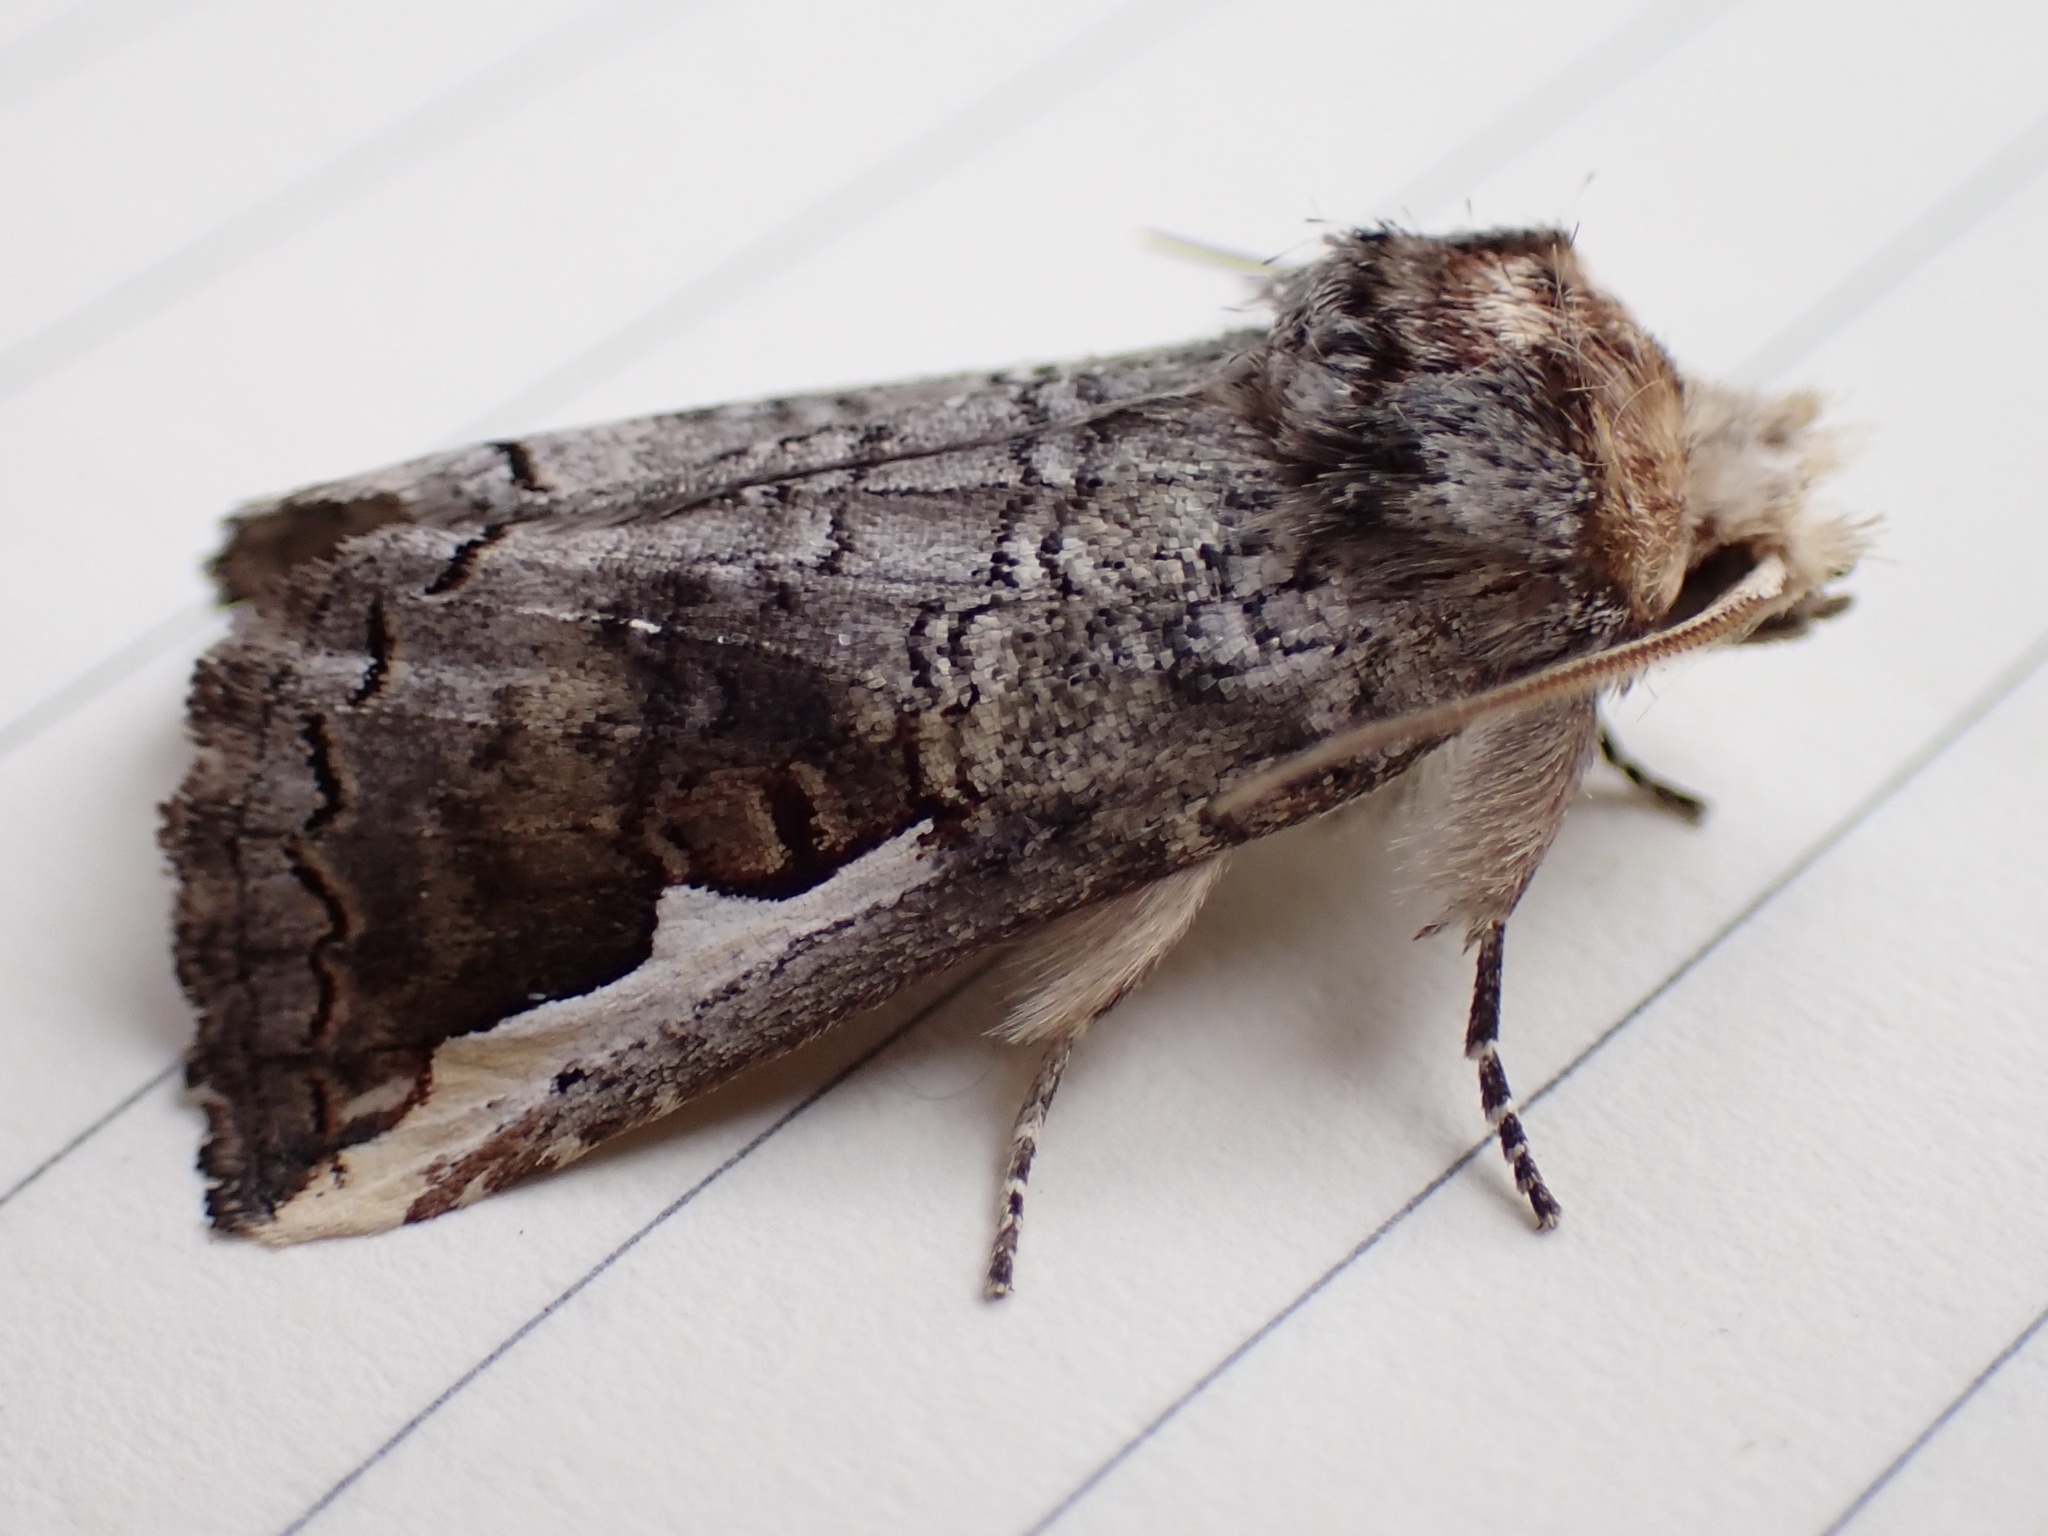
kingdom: Animalia
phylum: Arthropoda
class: Insecta
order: Lepidoptera
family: Notodontidae
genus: Symmerista
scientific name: Symmerista albifrons
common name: White-headed prominent
